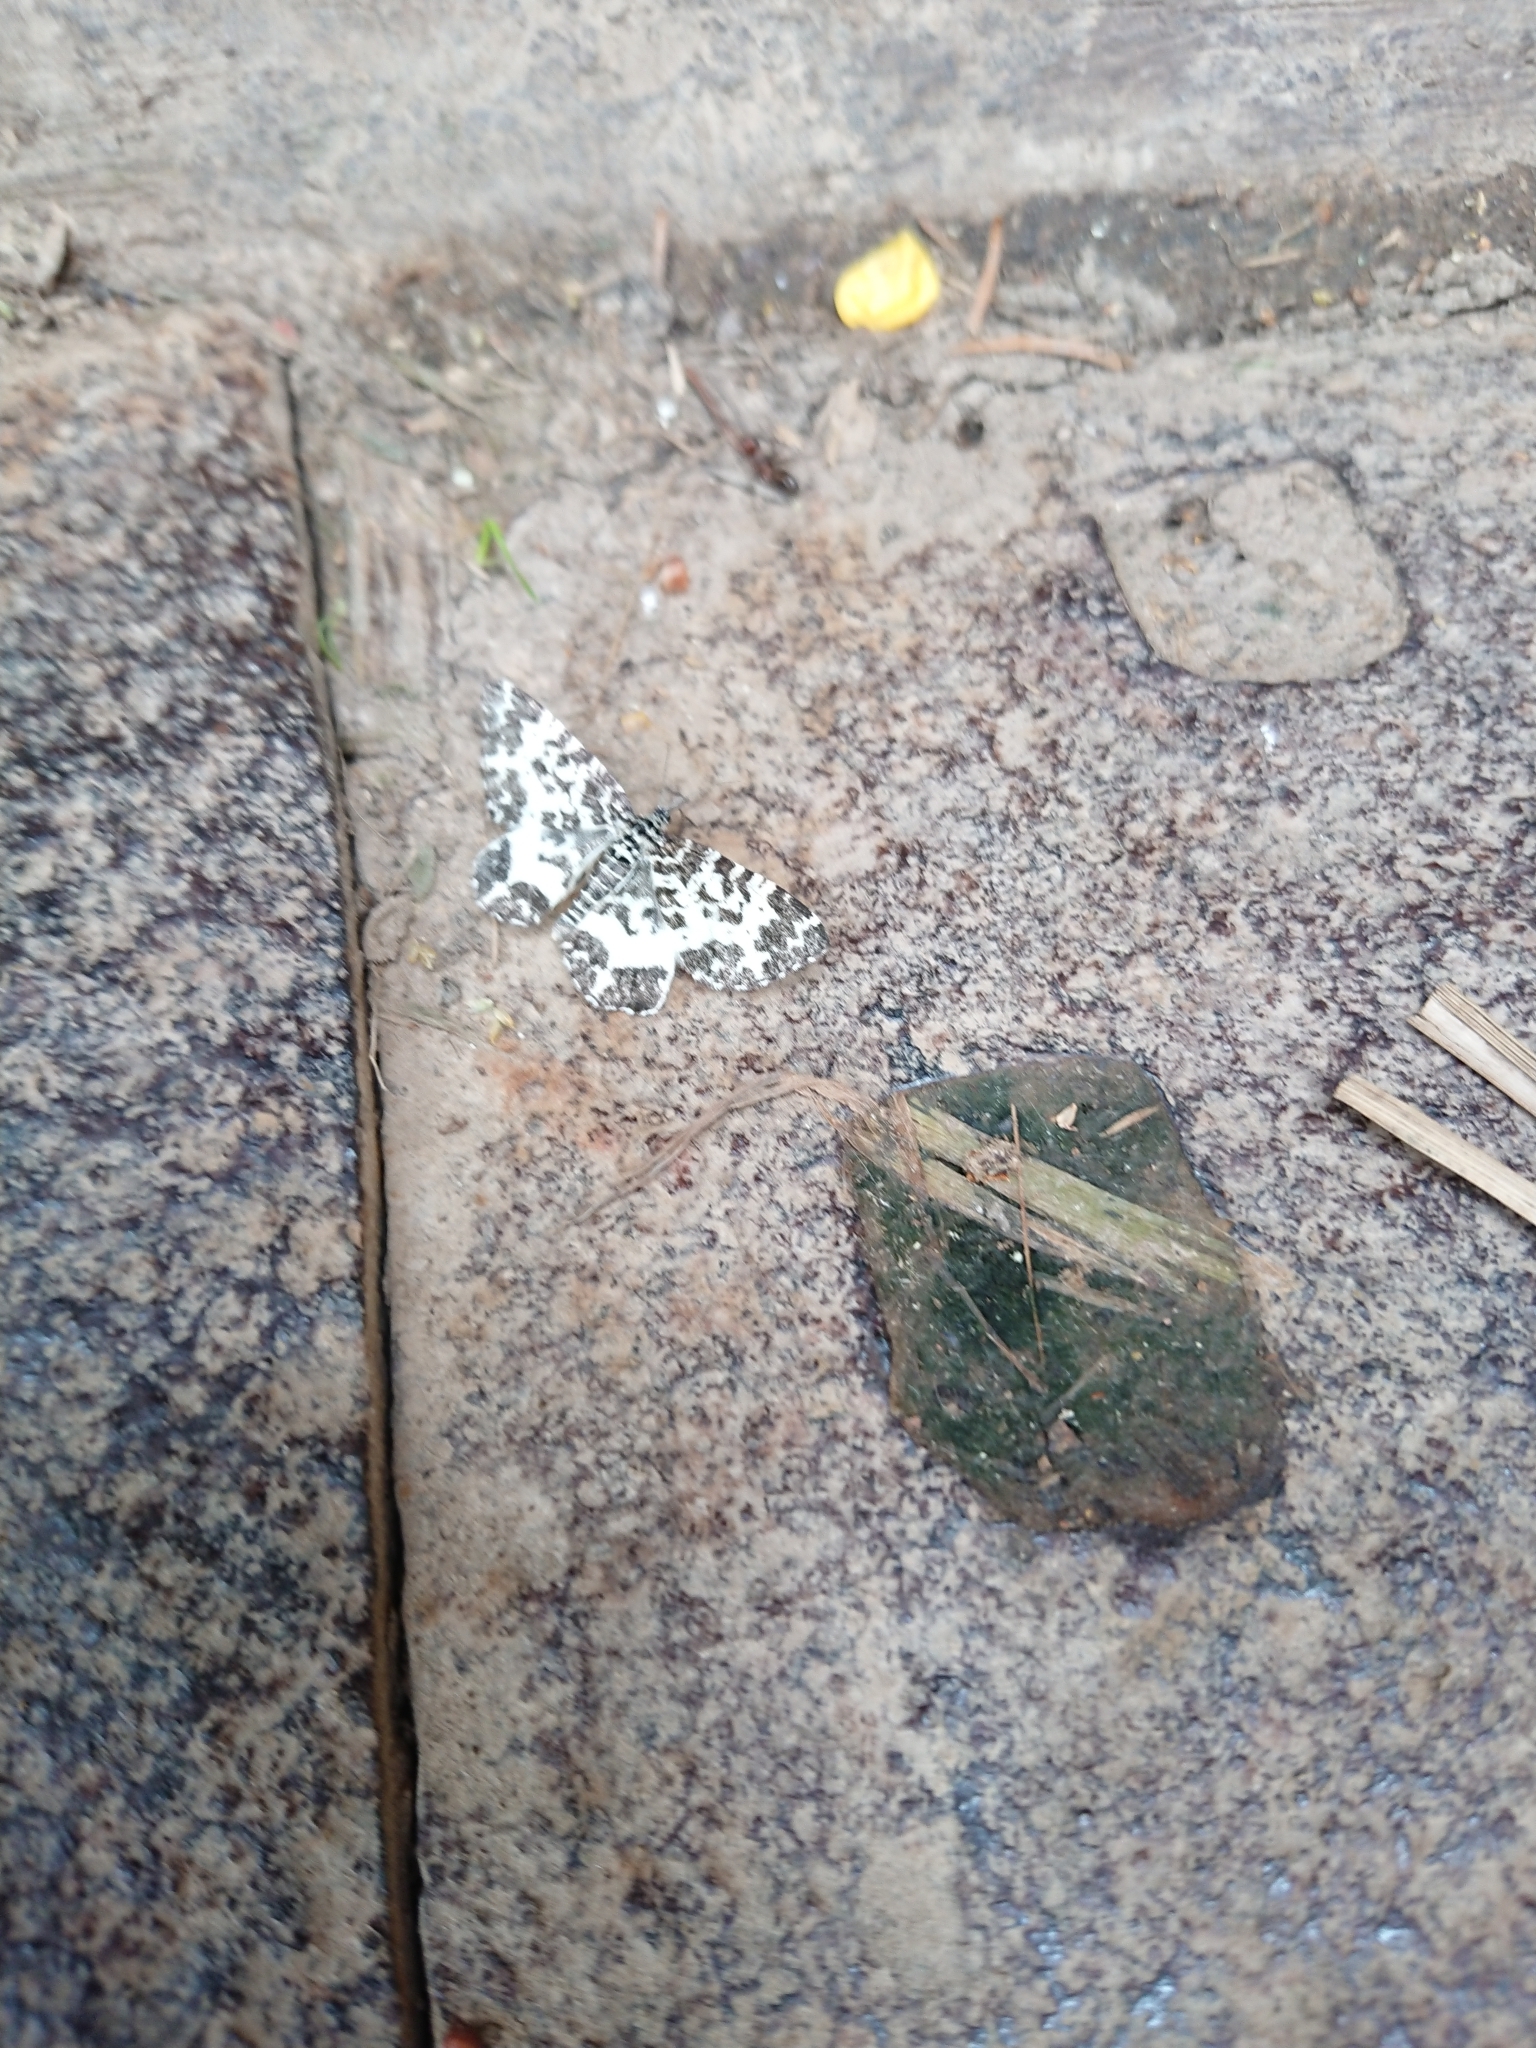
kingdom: Animalia
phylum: Arthropoda
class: Insecta
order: Lepidoptera
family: Geometridae
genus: Rheumaptera
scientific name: Rheumaptera hastata
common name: Argent & sable
